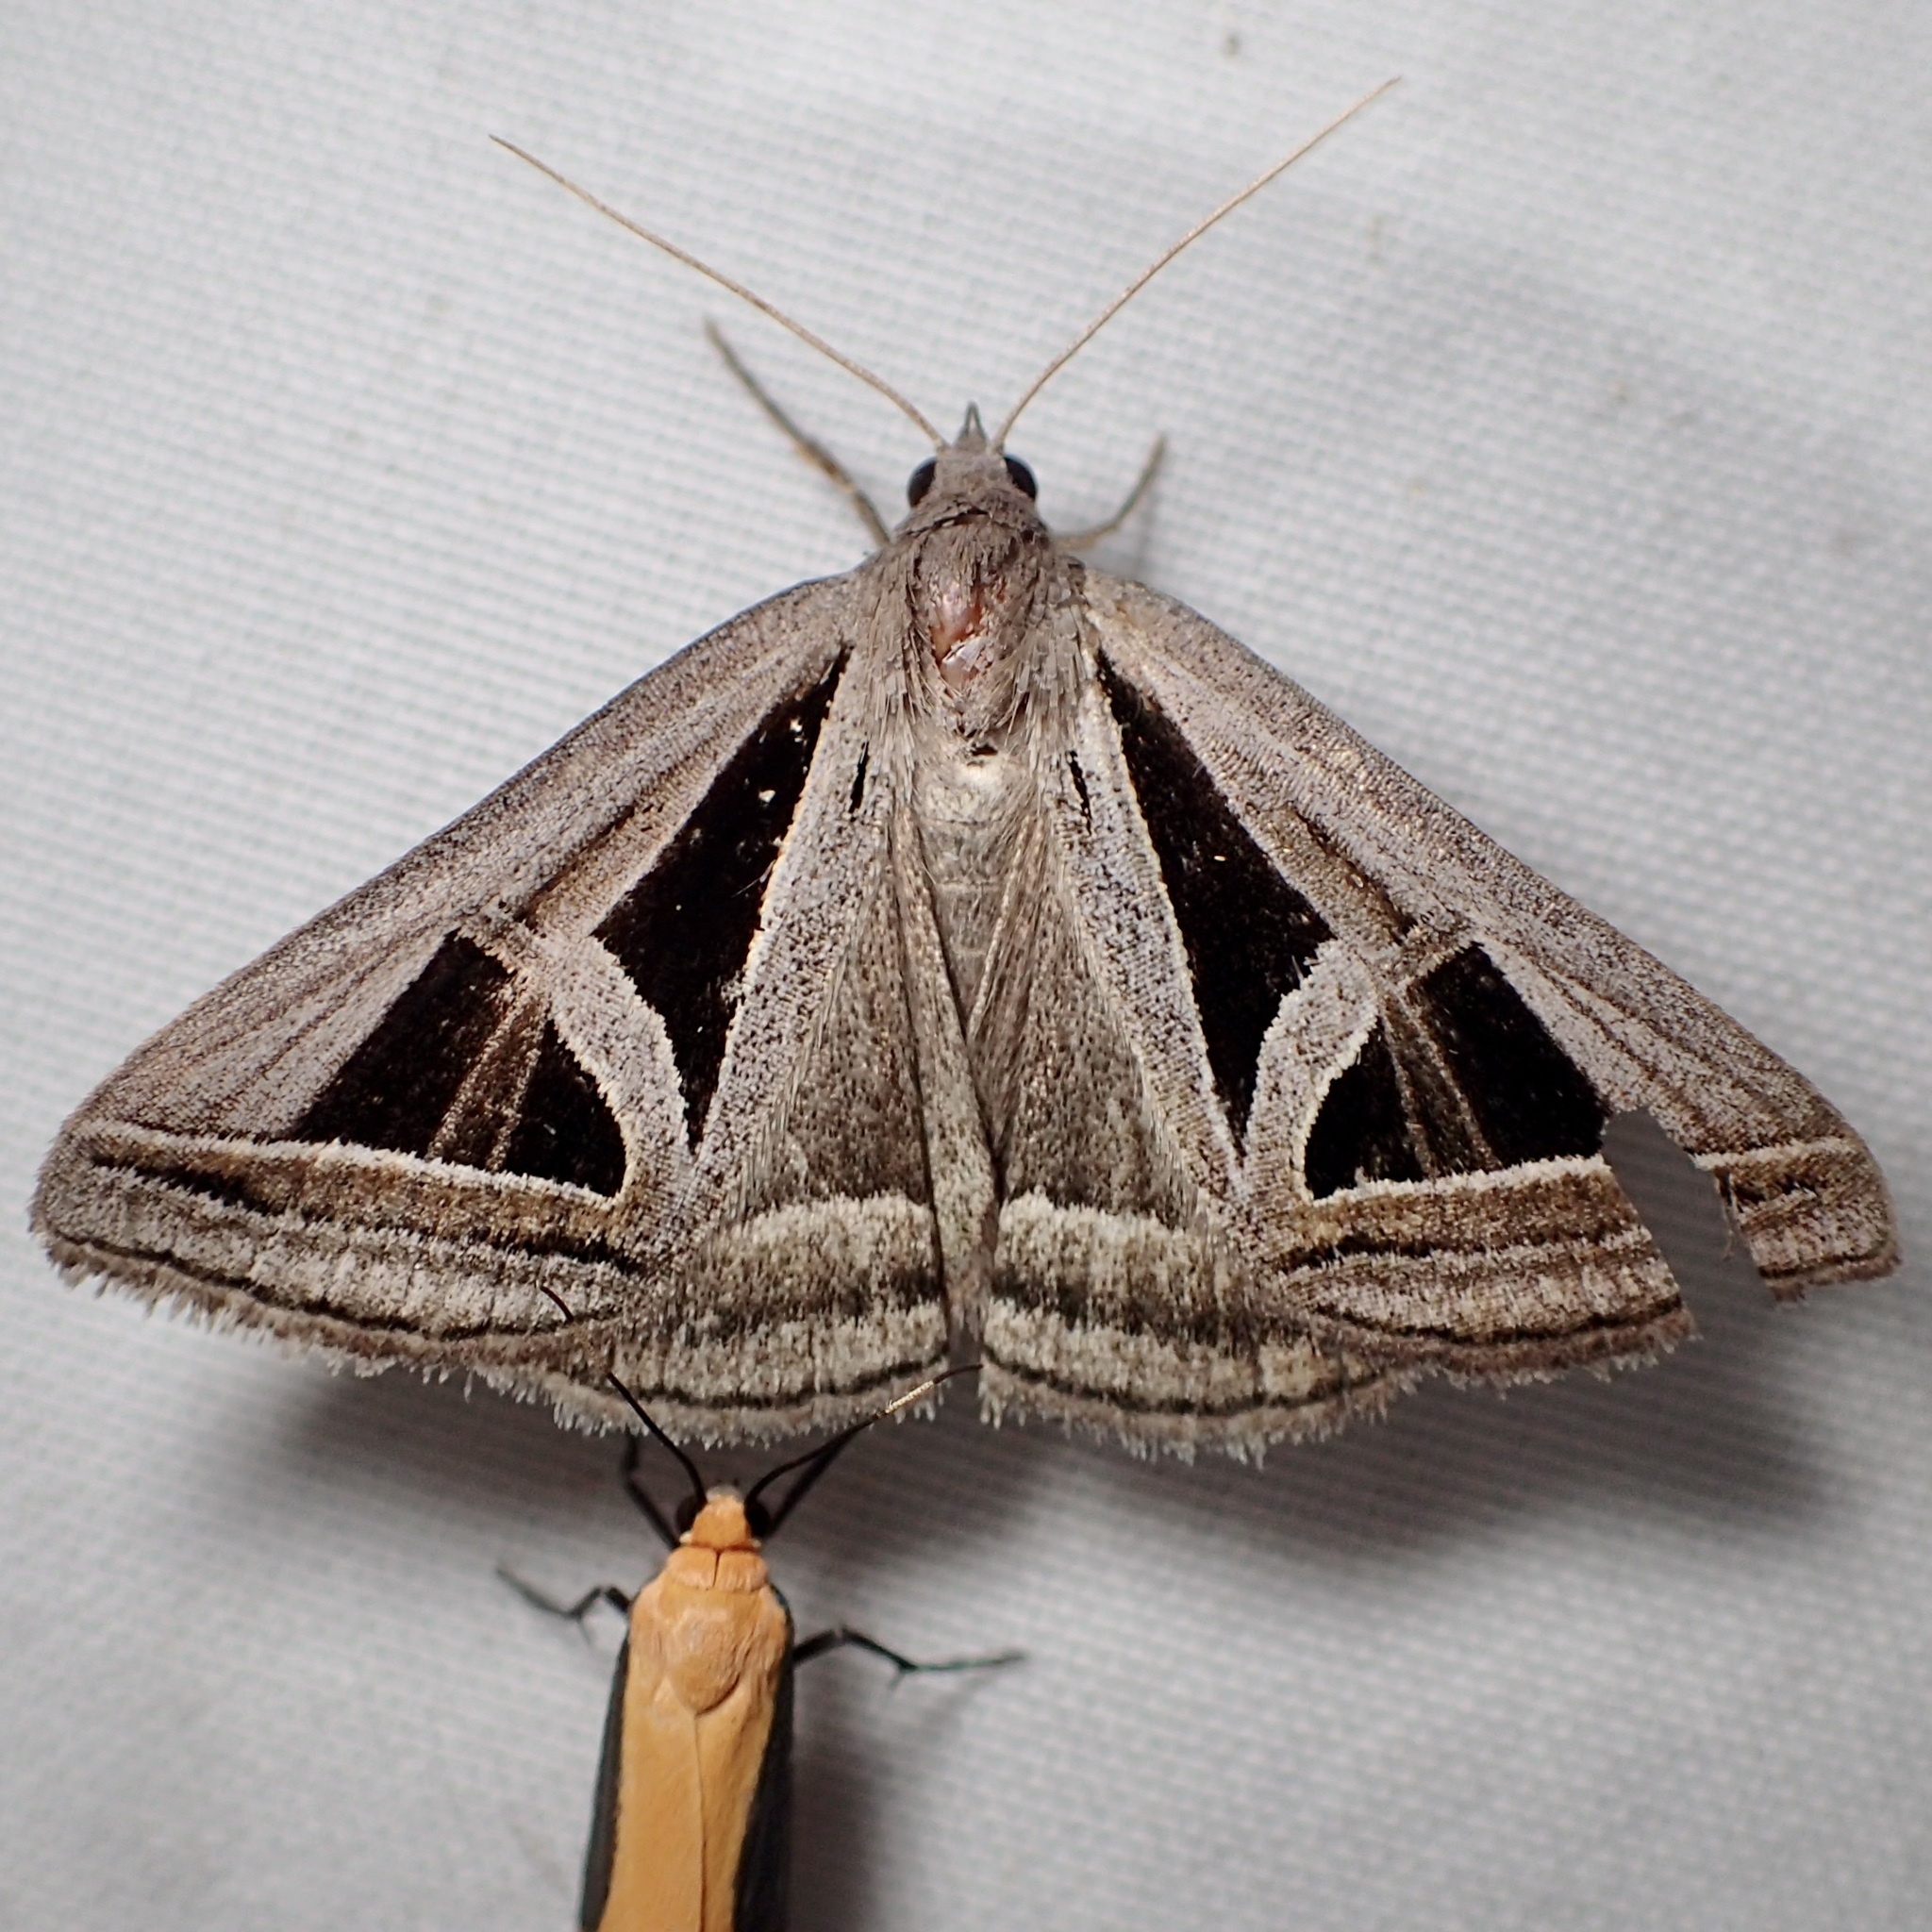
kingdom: Animalia
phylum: Arthropoda
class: Insecta
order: Lepidoptera
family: Erebidae
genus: Callistege
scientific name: Callistege triangula
